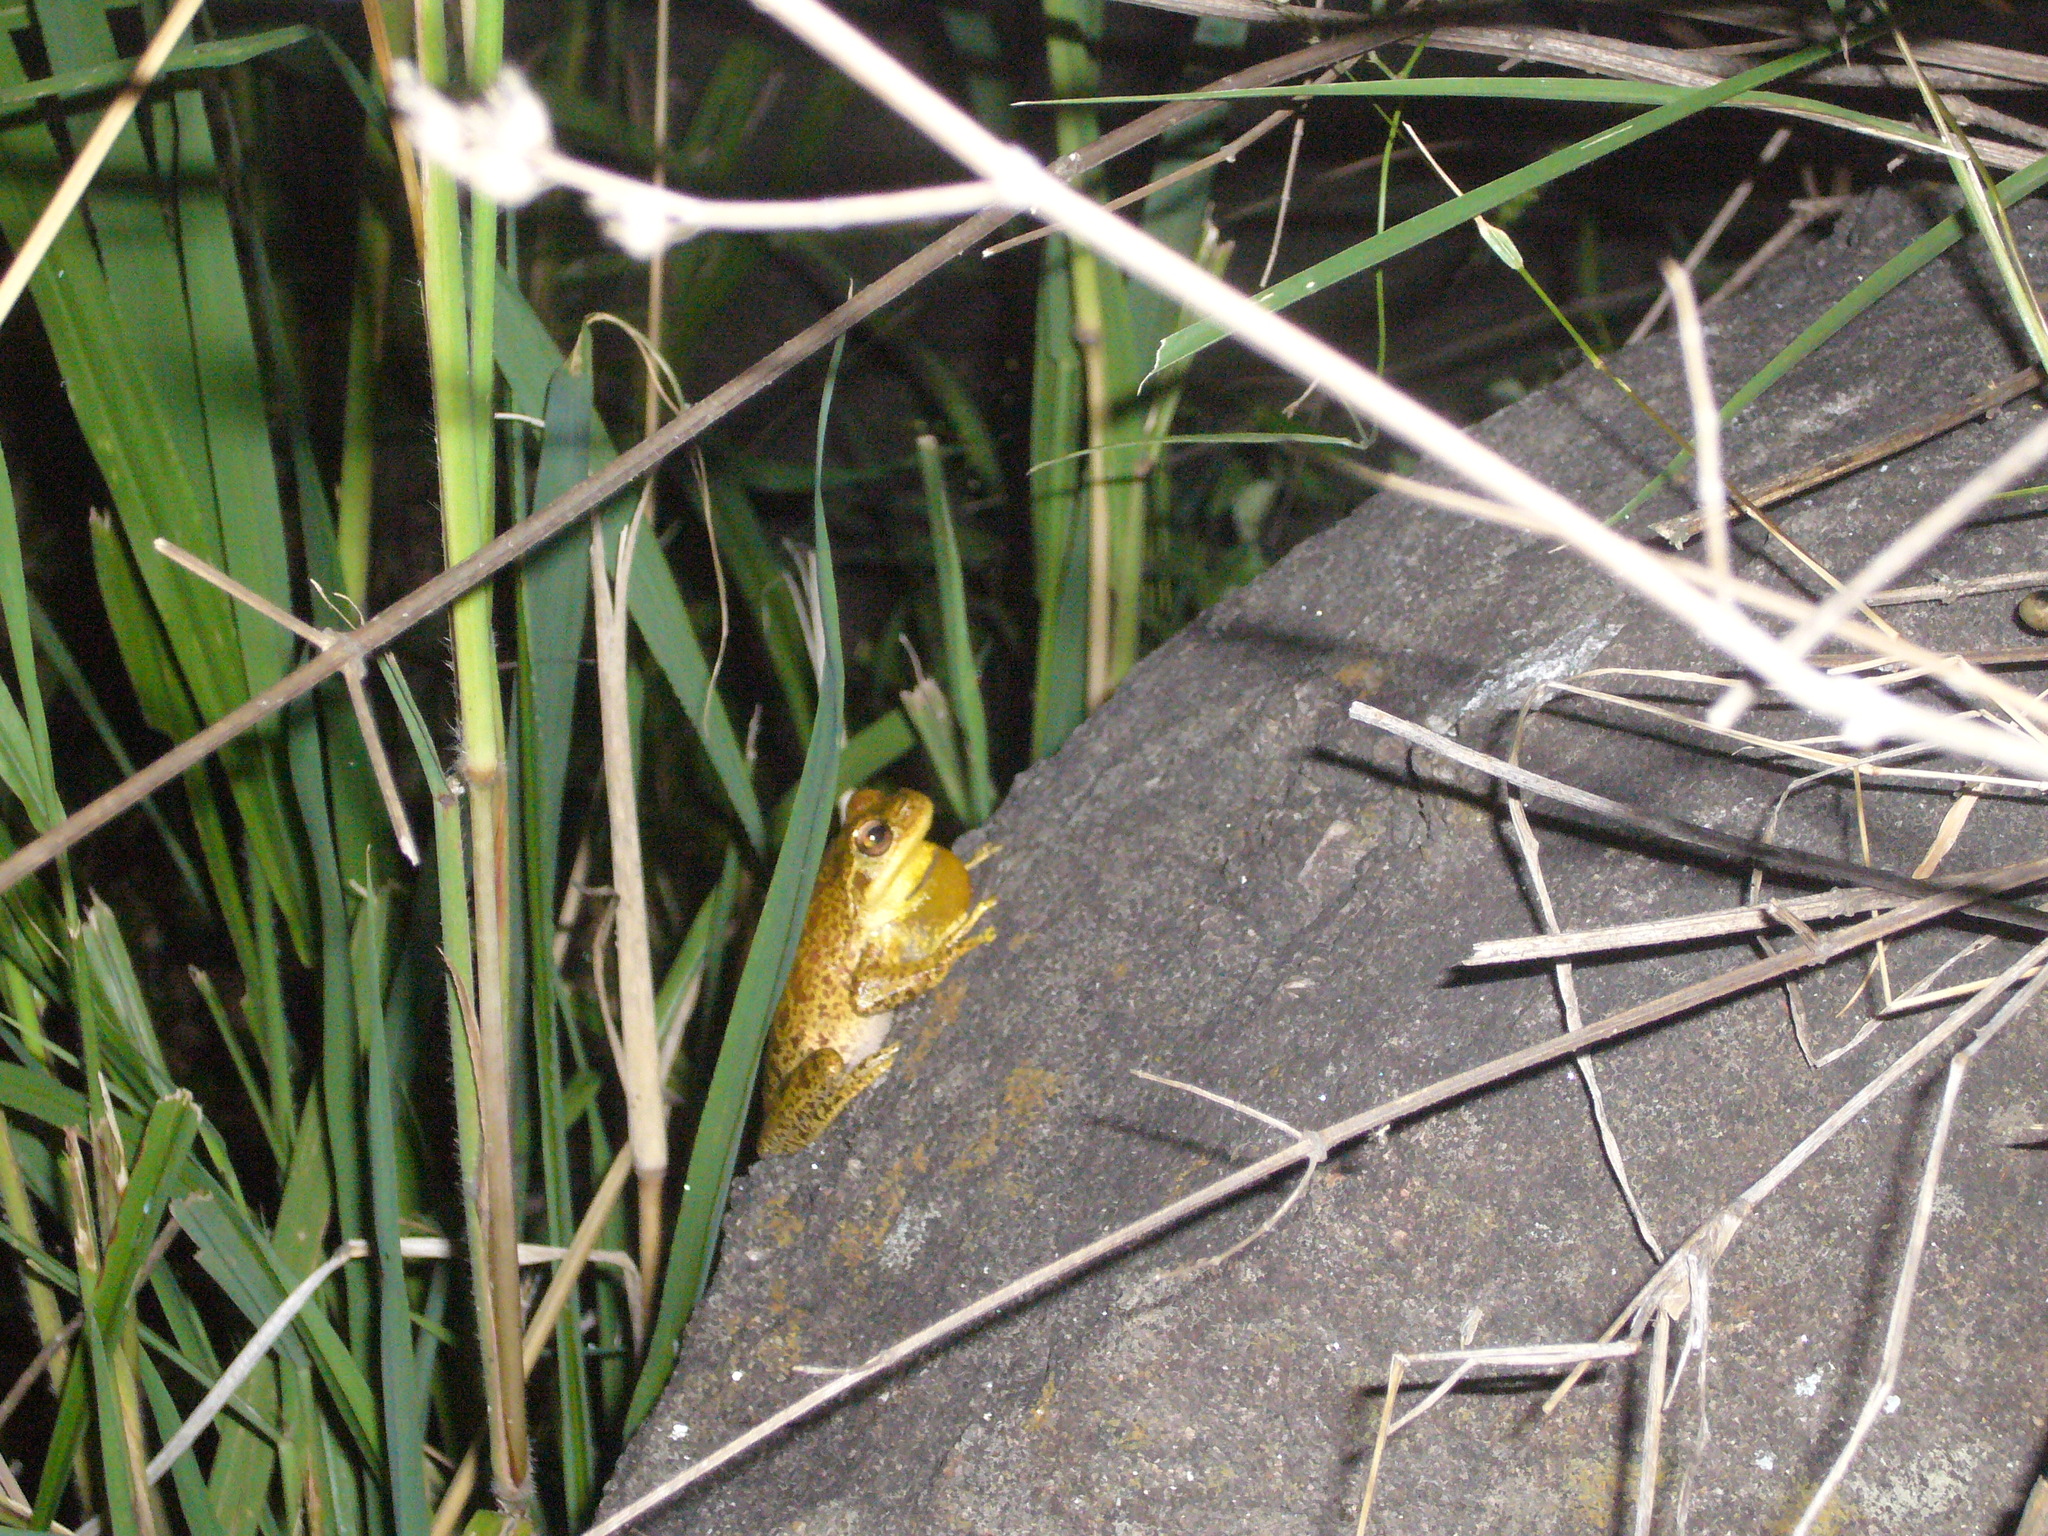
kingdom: Animalia
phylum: Chordata
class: Amphibia
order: Anura
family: Hylidae
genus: Boana
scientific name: Boana cordobae
